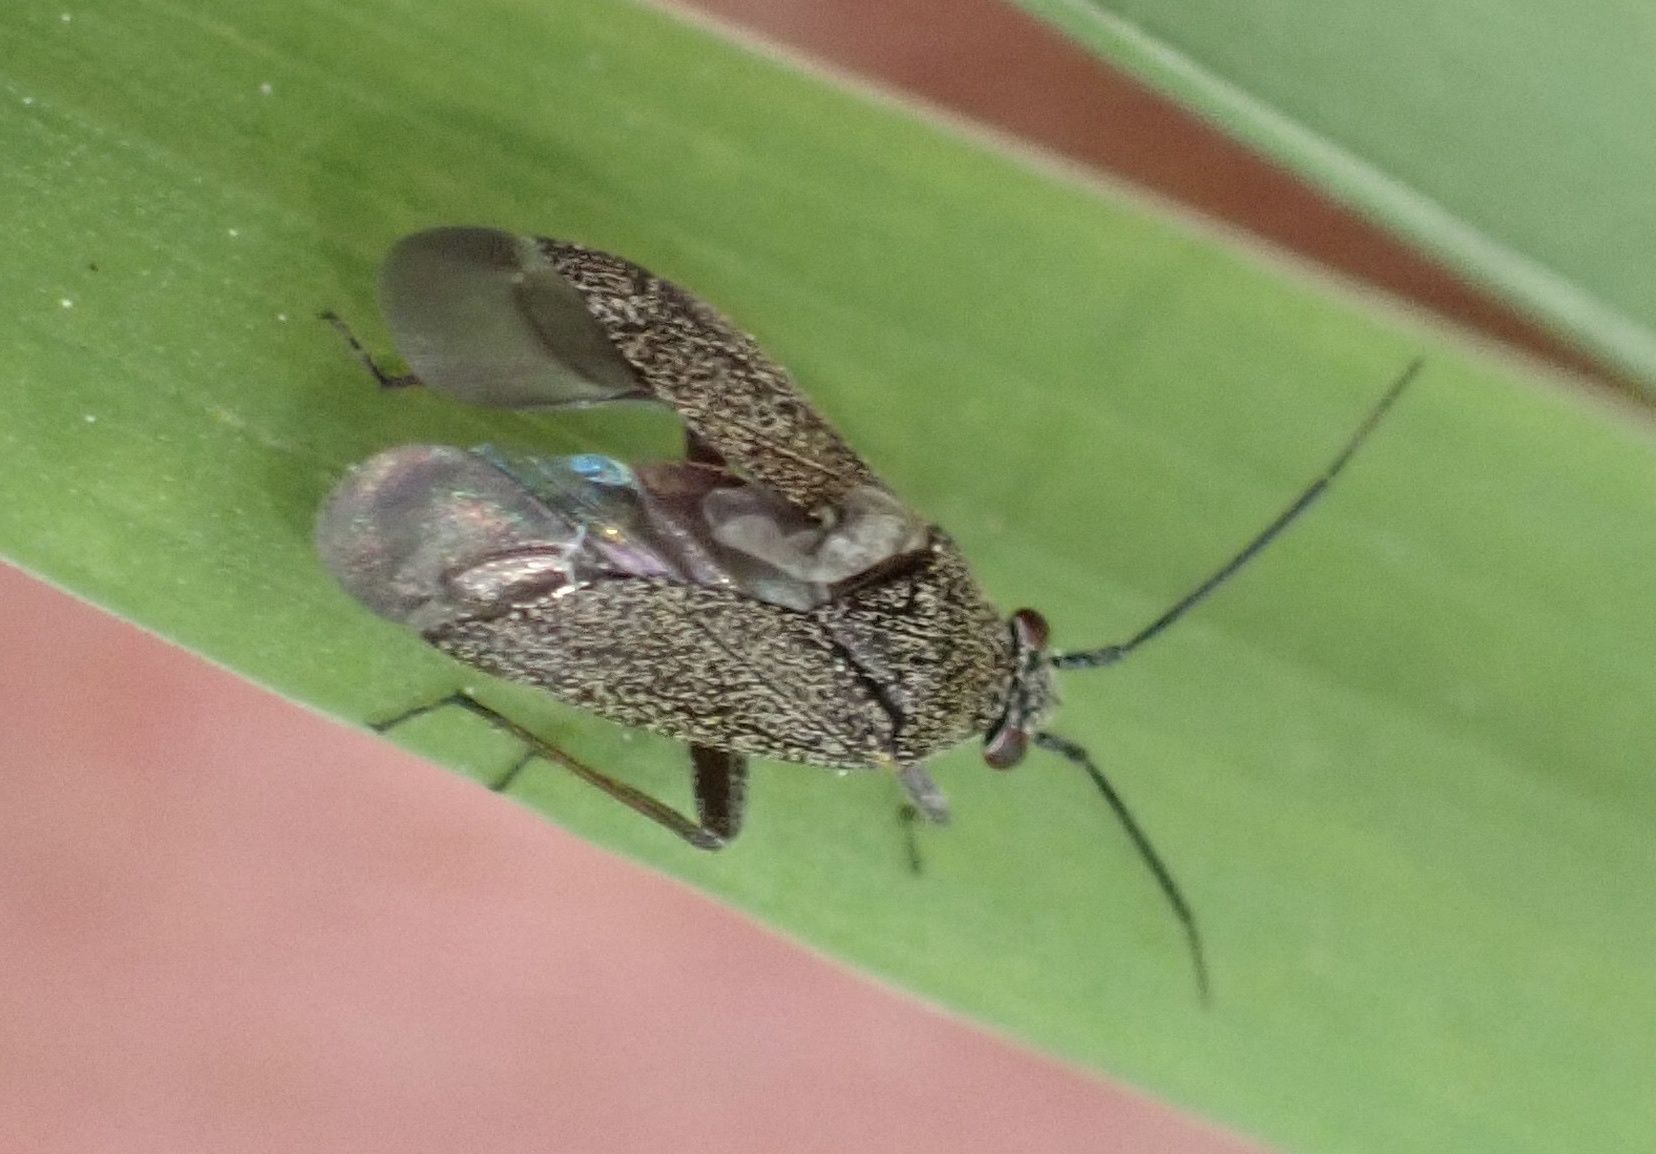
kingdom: Animalia
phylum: Arthropoda
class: Insecta
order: Hemiptera
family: Miridae
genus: Heterocordylus
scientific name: Heterocordylus tibialis
